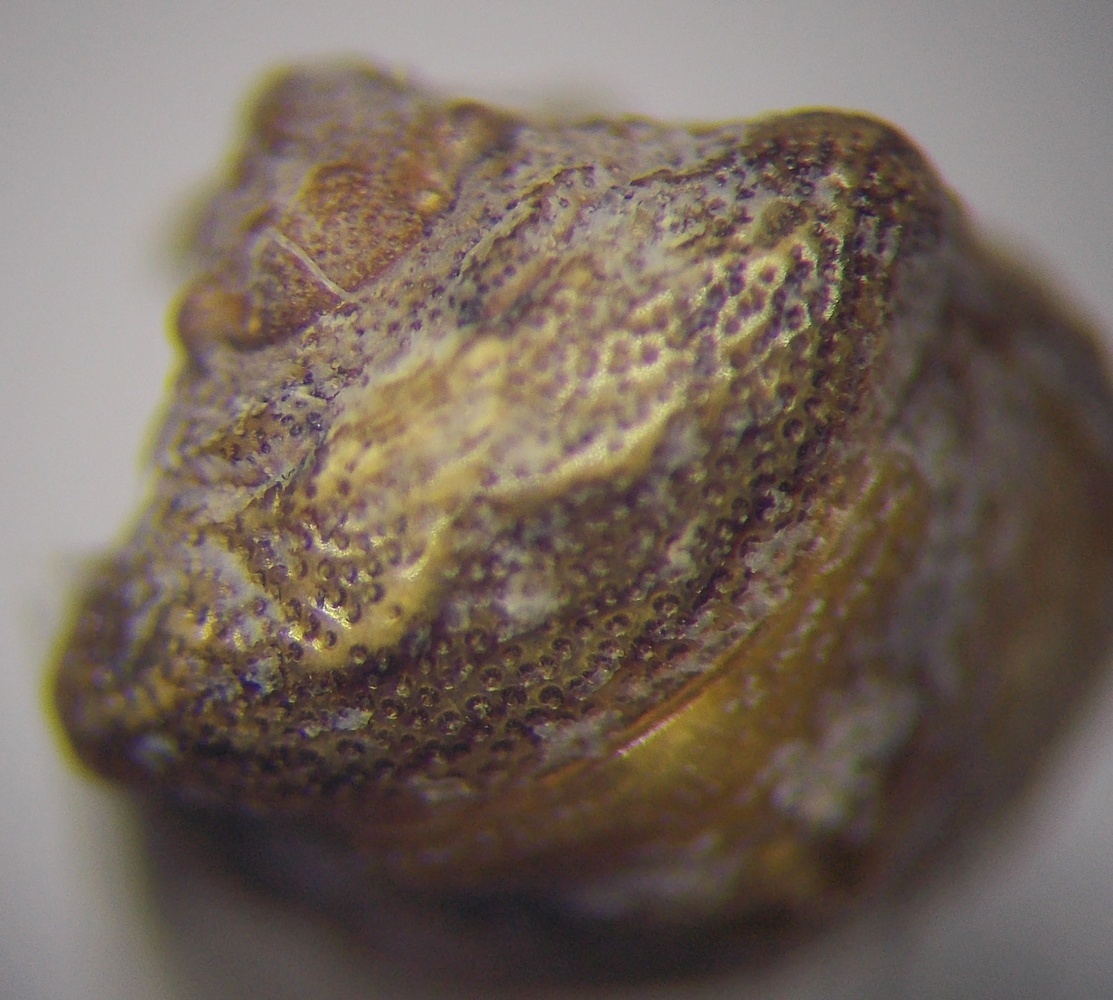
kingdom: Animalia
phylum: Arthropoda
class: Insecta
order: Hemiptera
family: Pentatomidae
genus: Vilpianus
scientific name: Vilpianus galii
